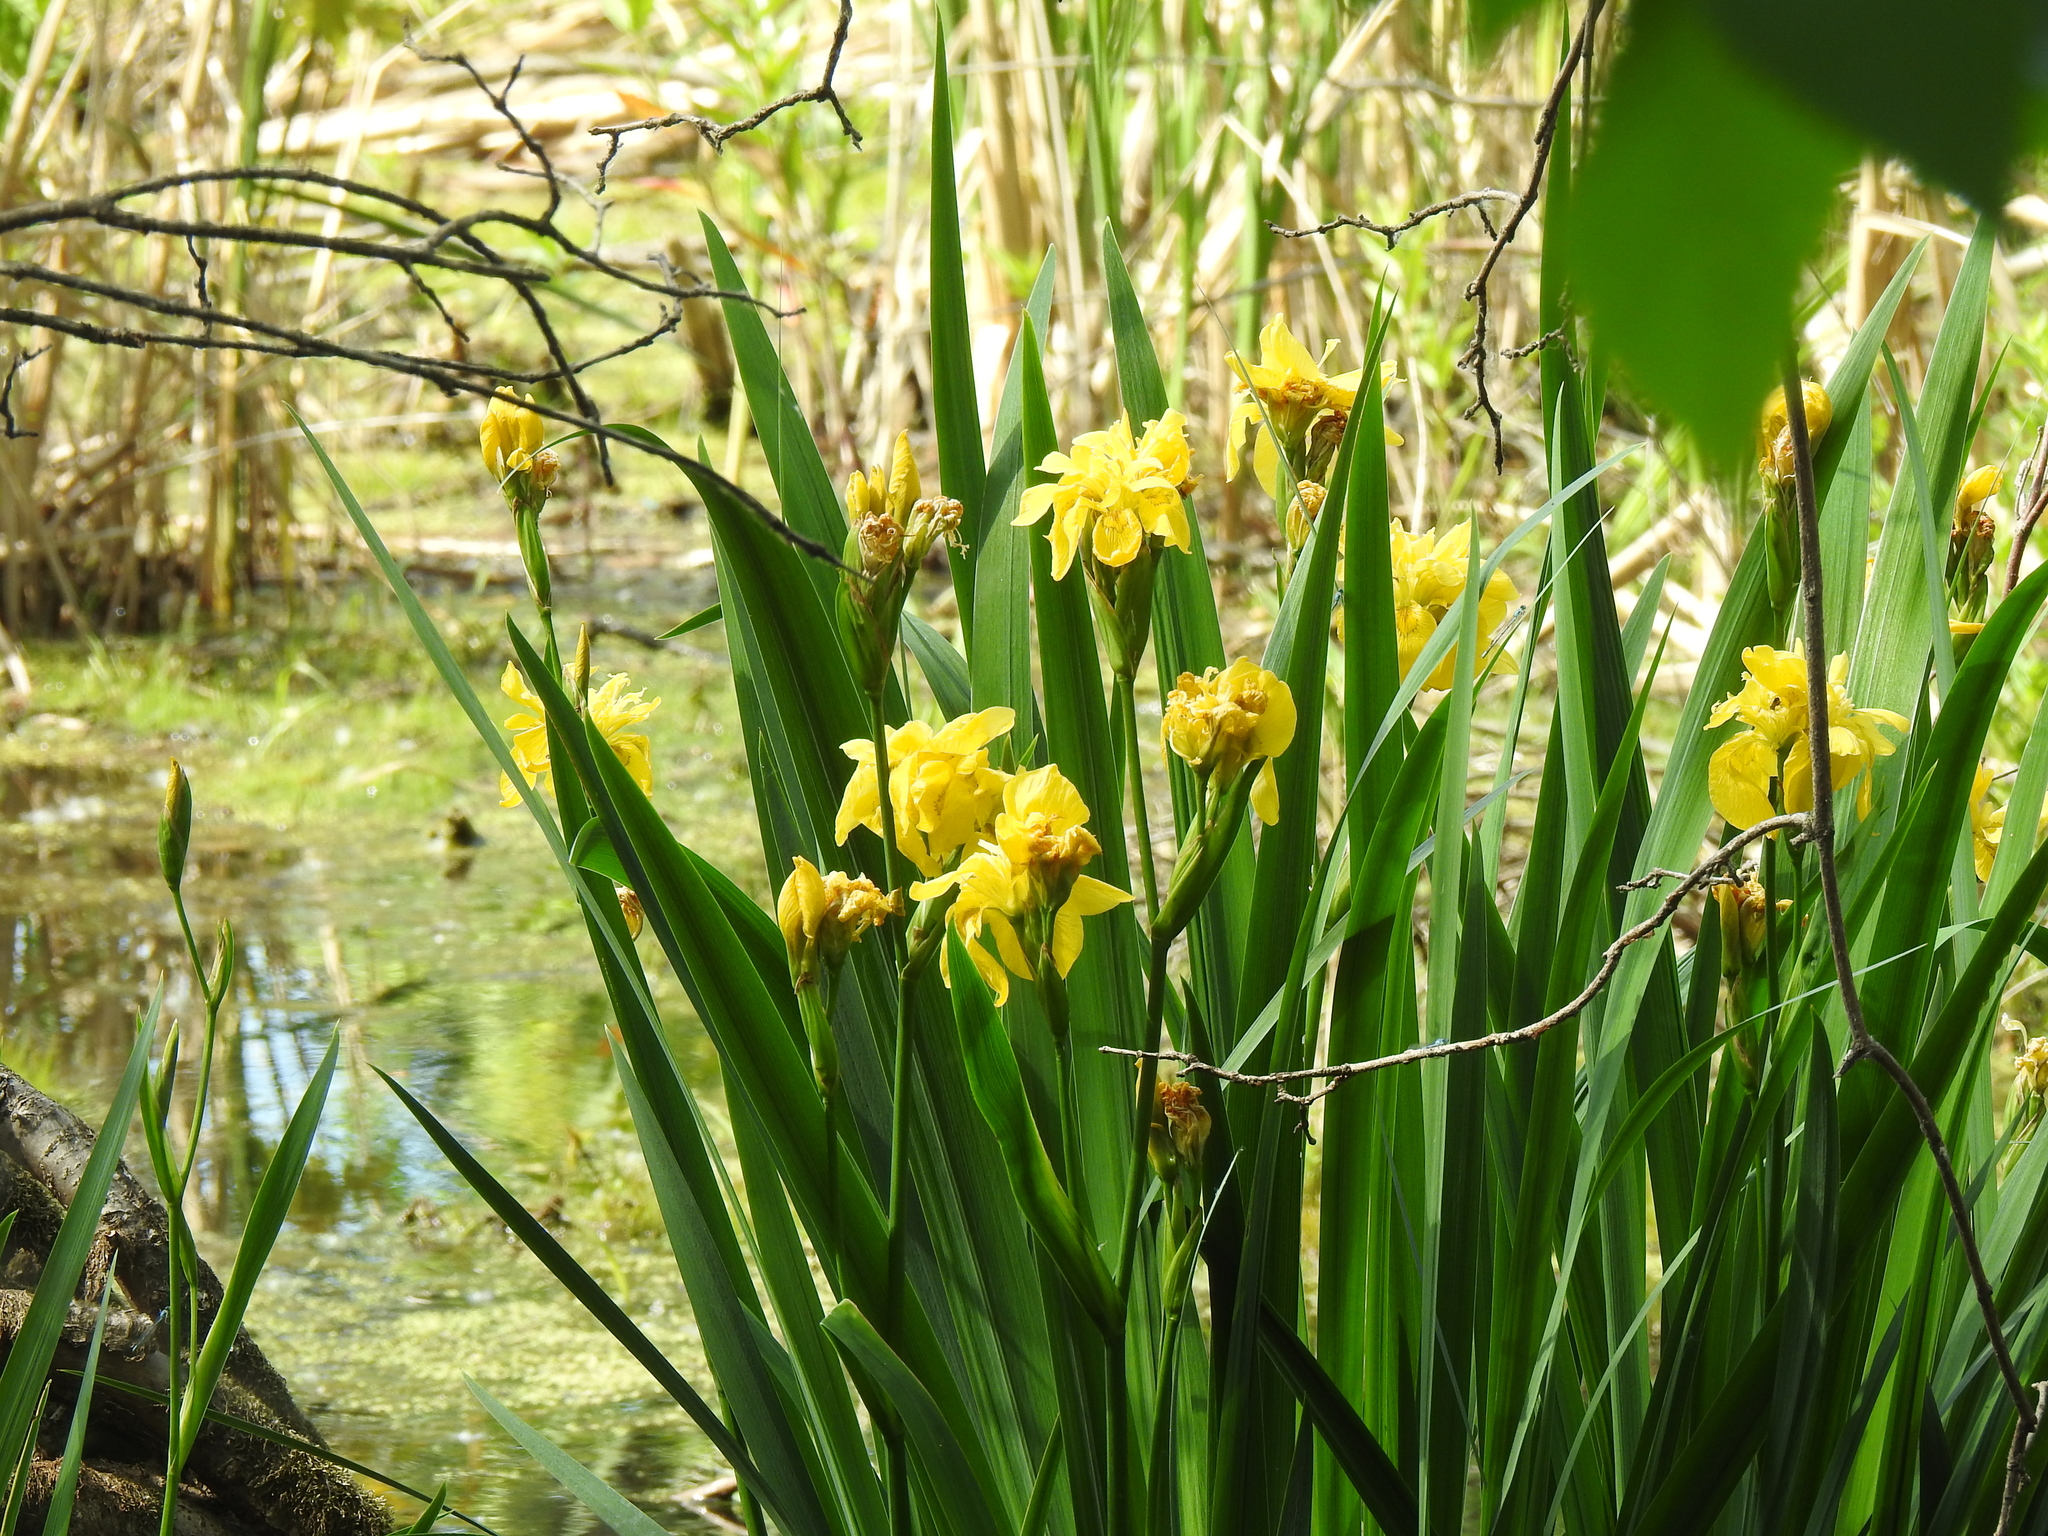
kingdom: Plantae
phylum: Tracheophyta
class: Liliopsida
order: Asparagales
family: Iridaceae
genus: Iris
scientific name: Iris pseudacorus
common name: Yellow flag
